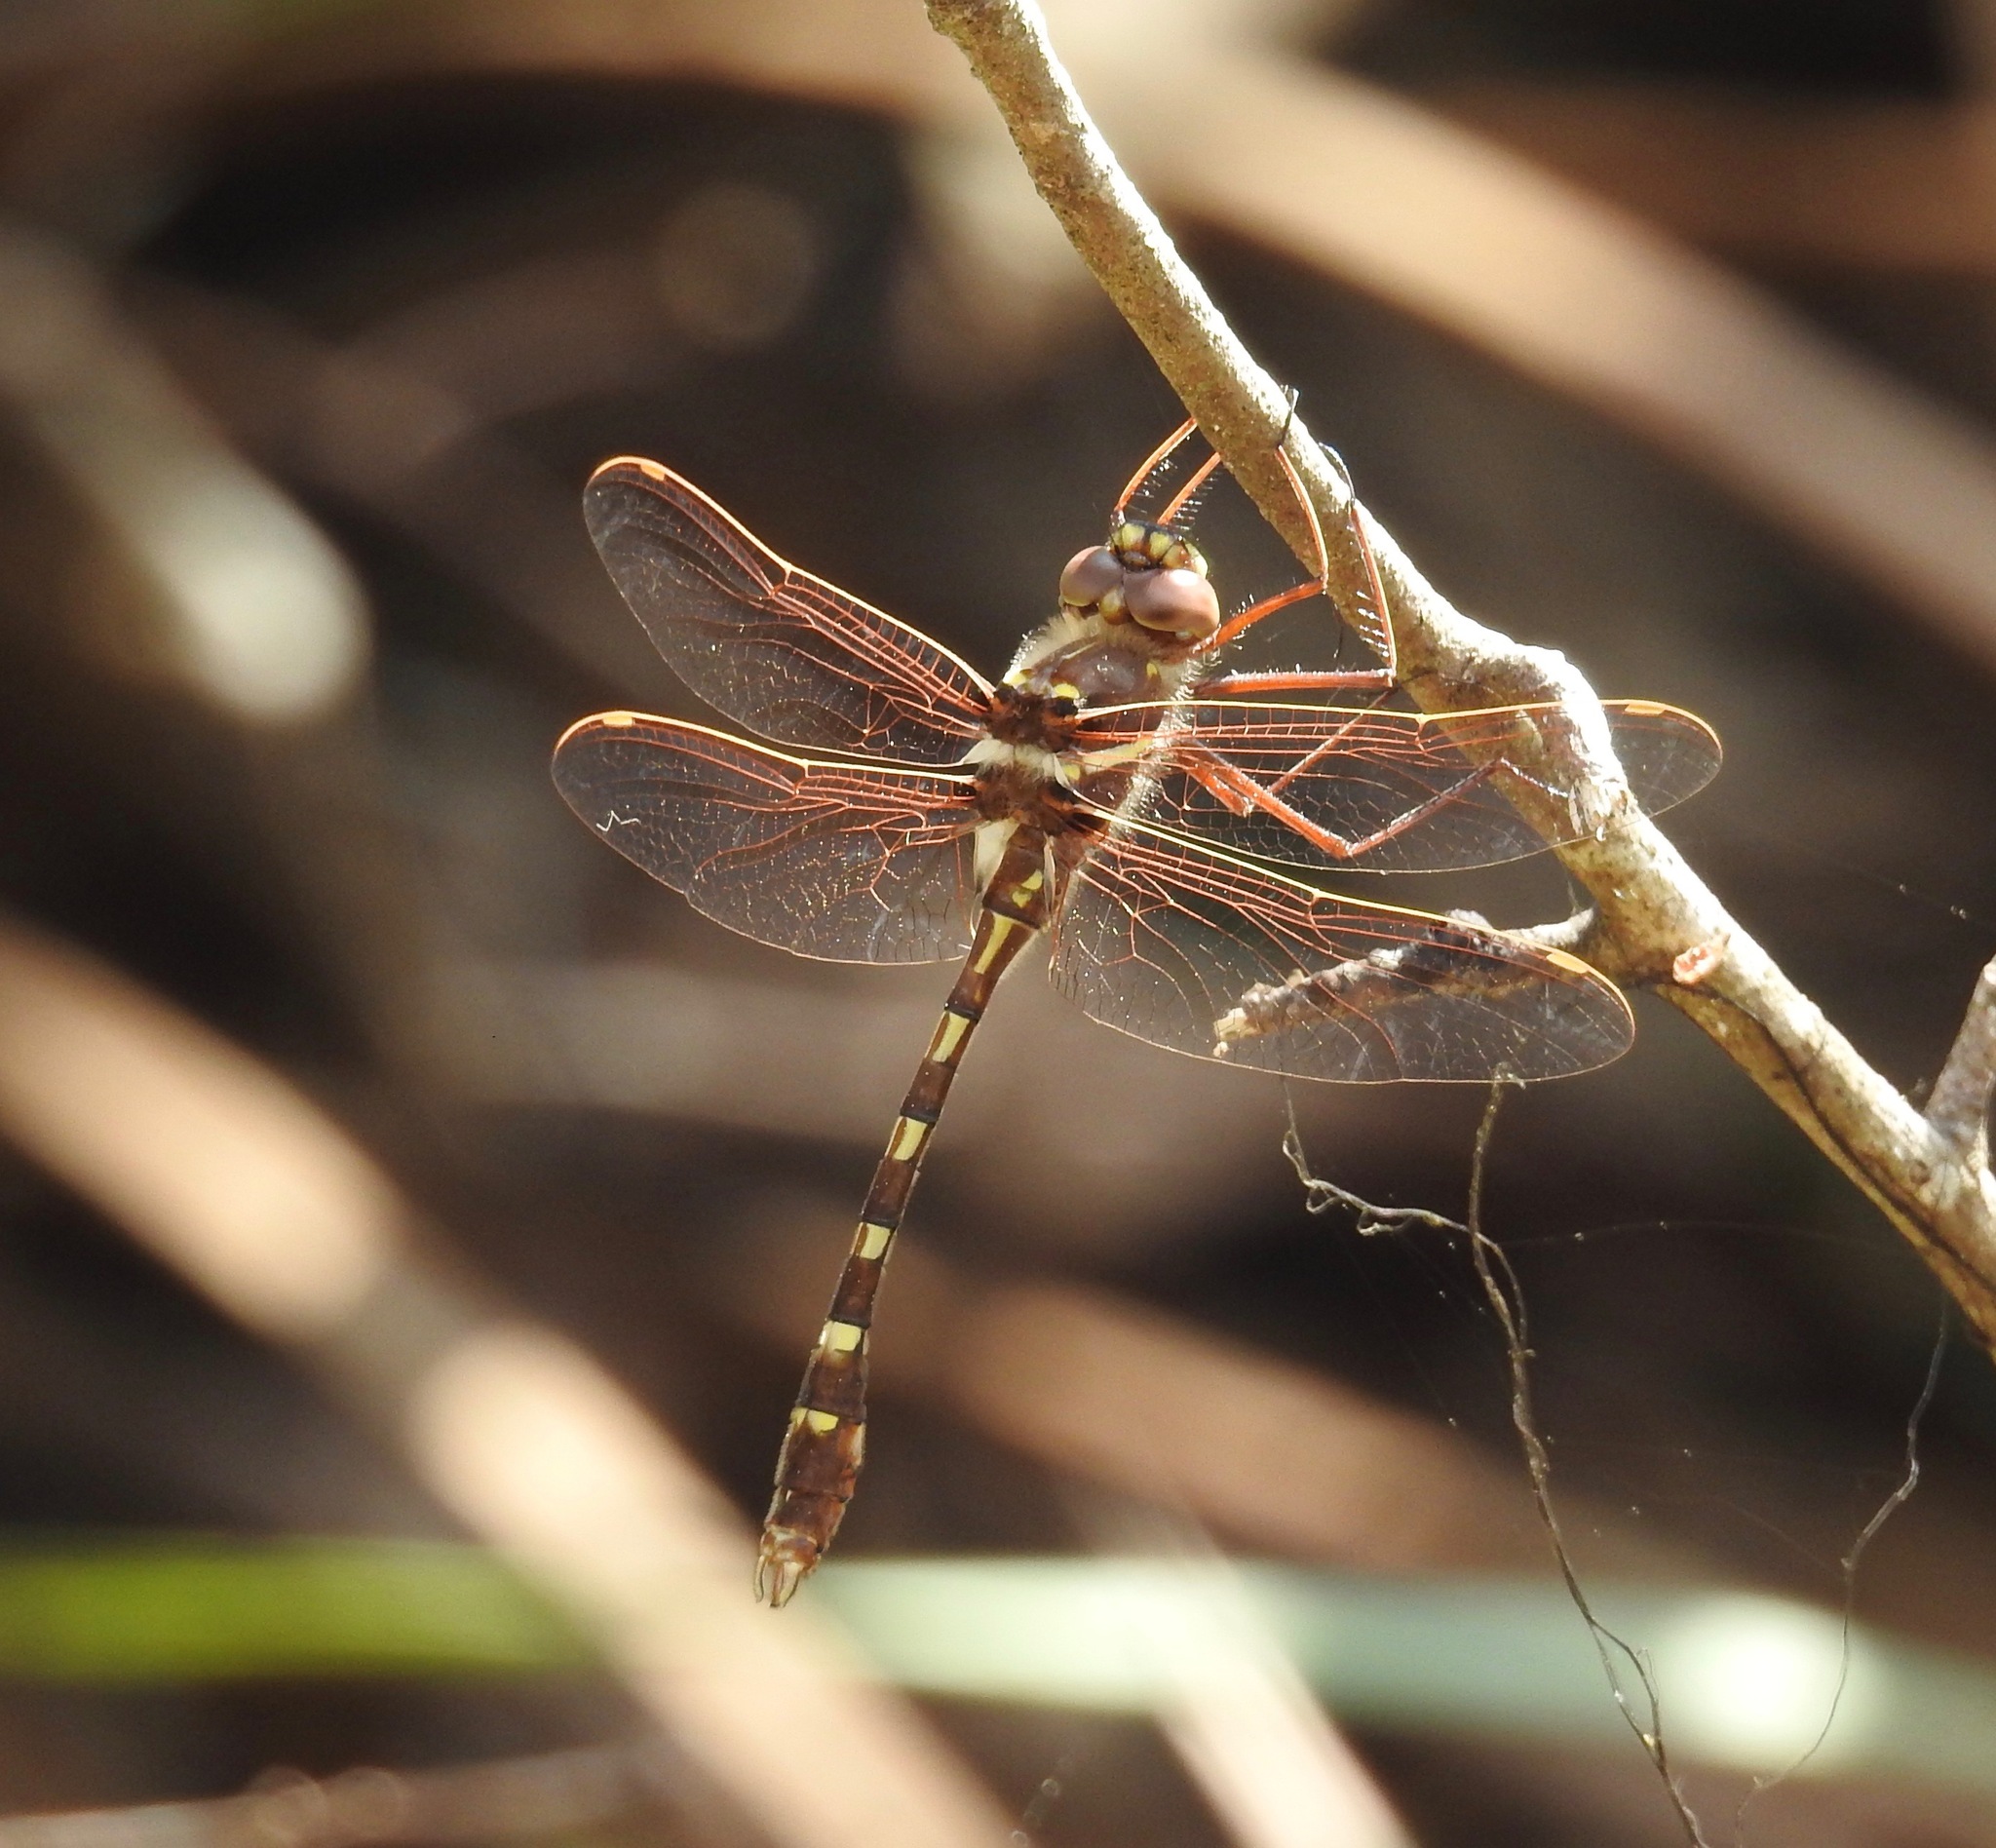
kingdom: Animalia
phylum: Arthropoda
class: Insecta
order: Odonata
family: Macromiidae
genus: Didymops
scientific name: Didymops transversa
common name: Stream cruiser
